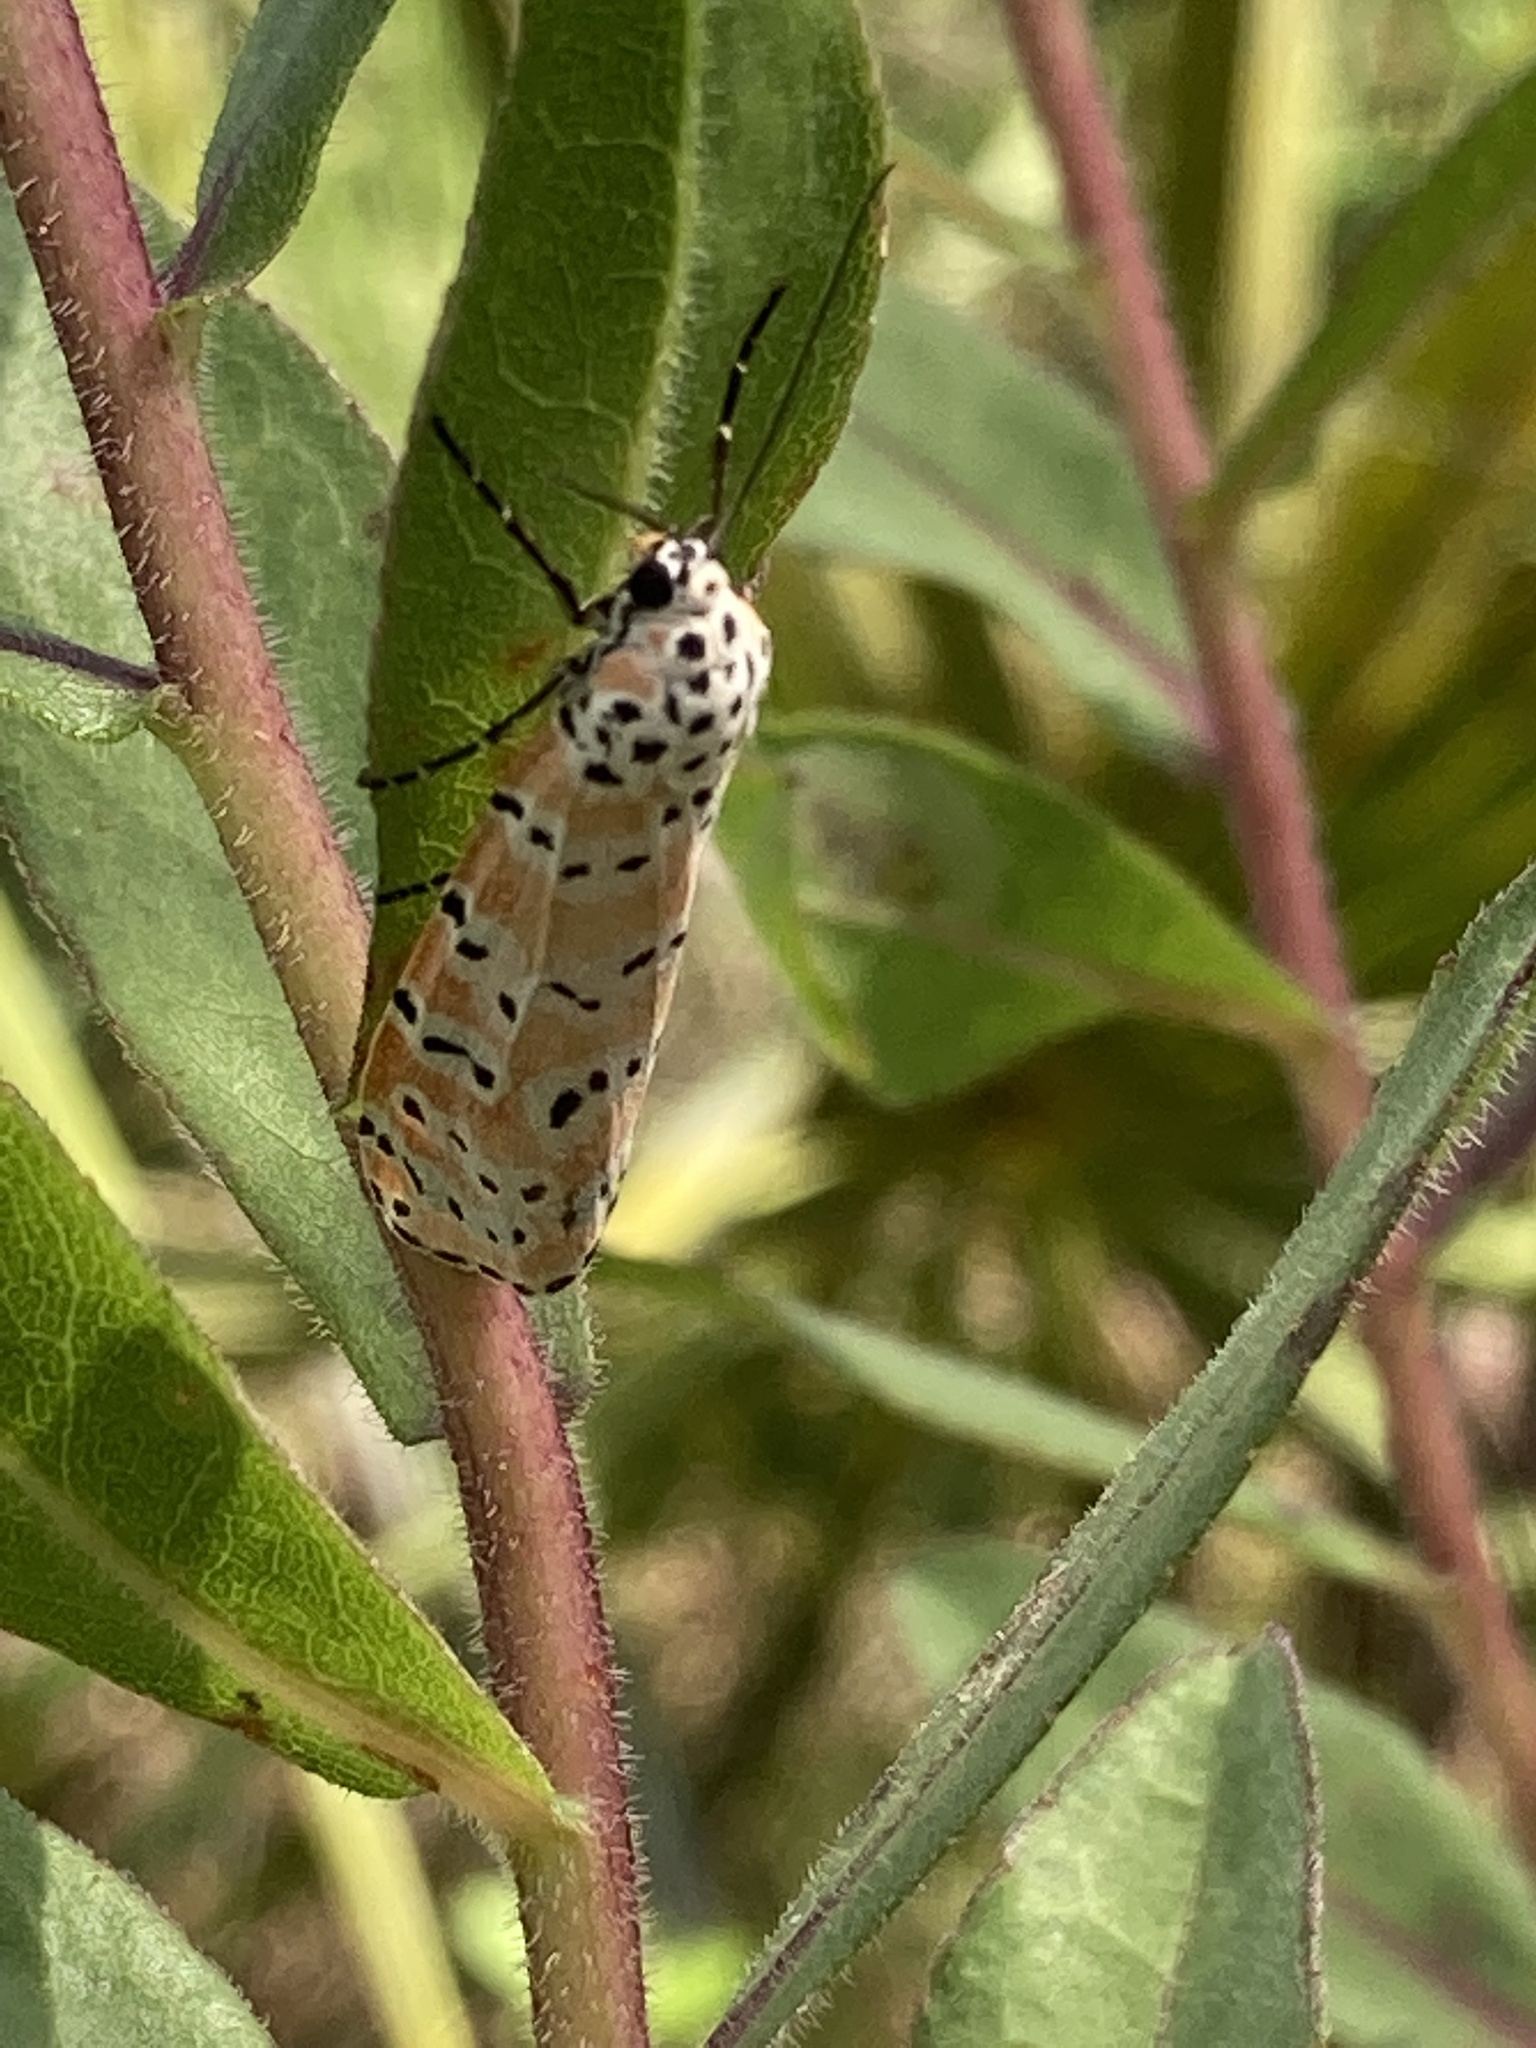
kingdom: Animalia
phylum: Arthropoda
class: Insecta
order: Lepidoptera
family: Erebidae
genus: Utetheisa
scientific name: Utetheisa ornatrix
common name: Beautiful utetheisa
